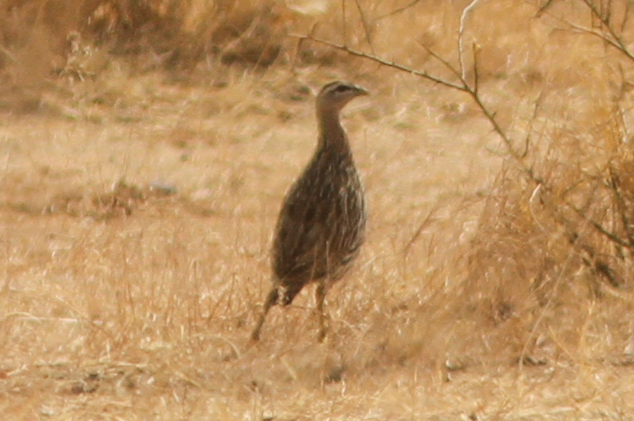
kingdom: Animalia
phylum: Chordata
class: Aves
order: Galliformes
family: Phasianidae
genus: Pternistis
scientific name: Pternistis bicalcaratus
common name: Double-spurred francolin
